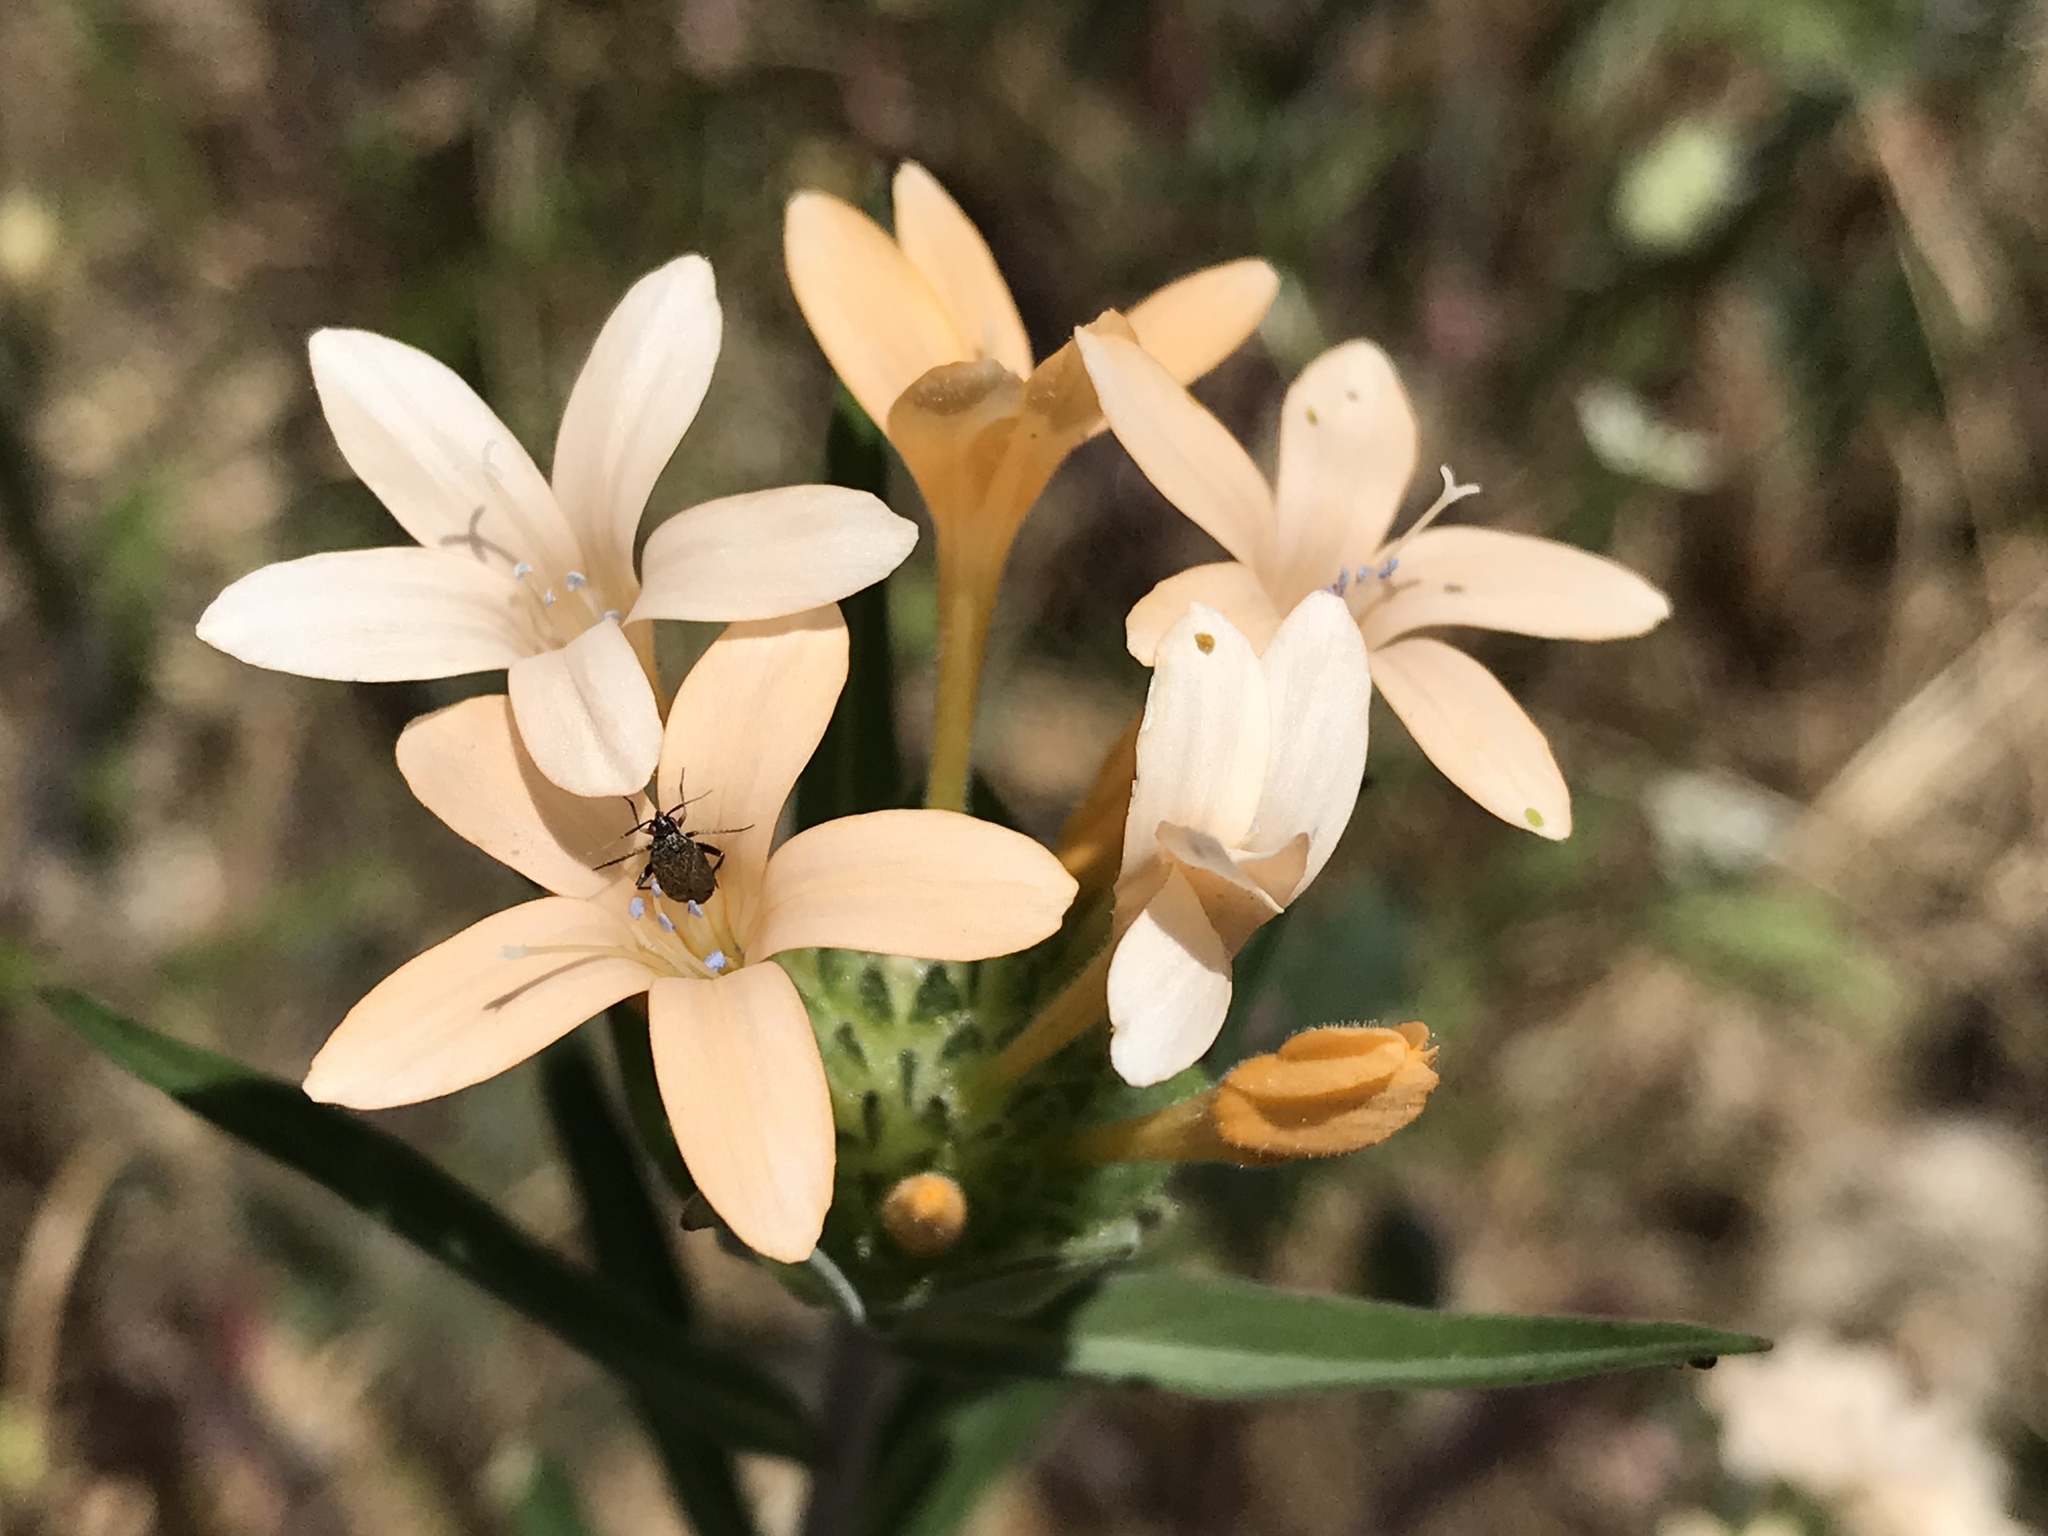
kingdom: Plantae
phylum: Tracheophyta
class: Magnoliopsida
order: Ericales
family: Polemoniaceae
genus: Collomia
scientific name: Collomia grandiflora
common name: California strawflower
